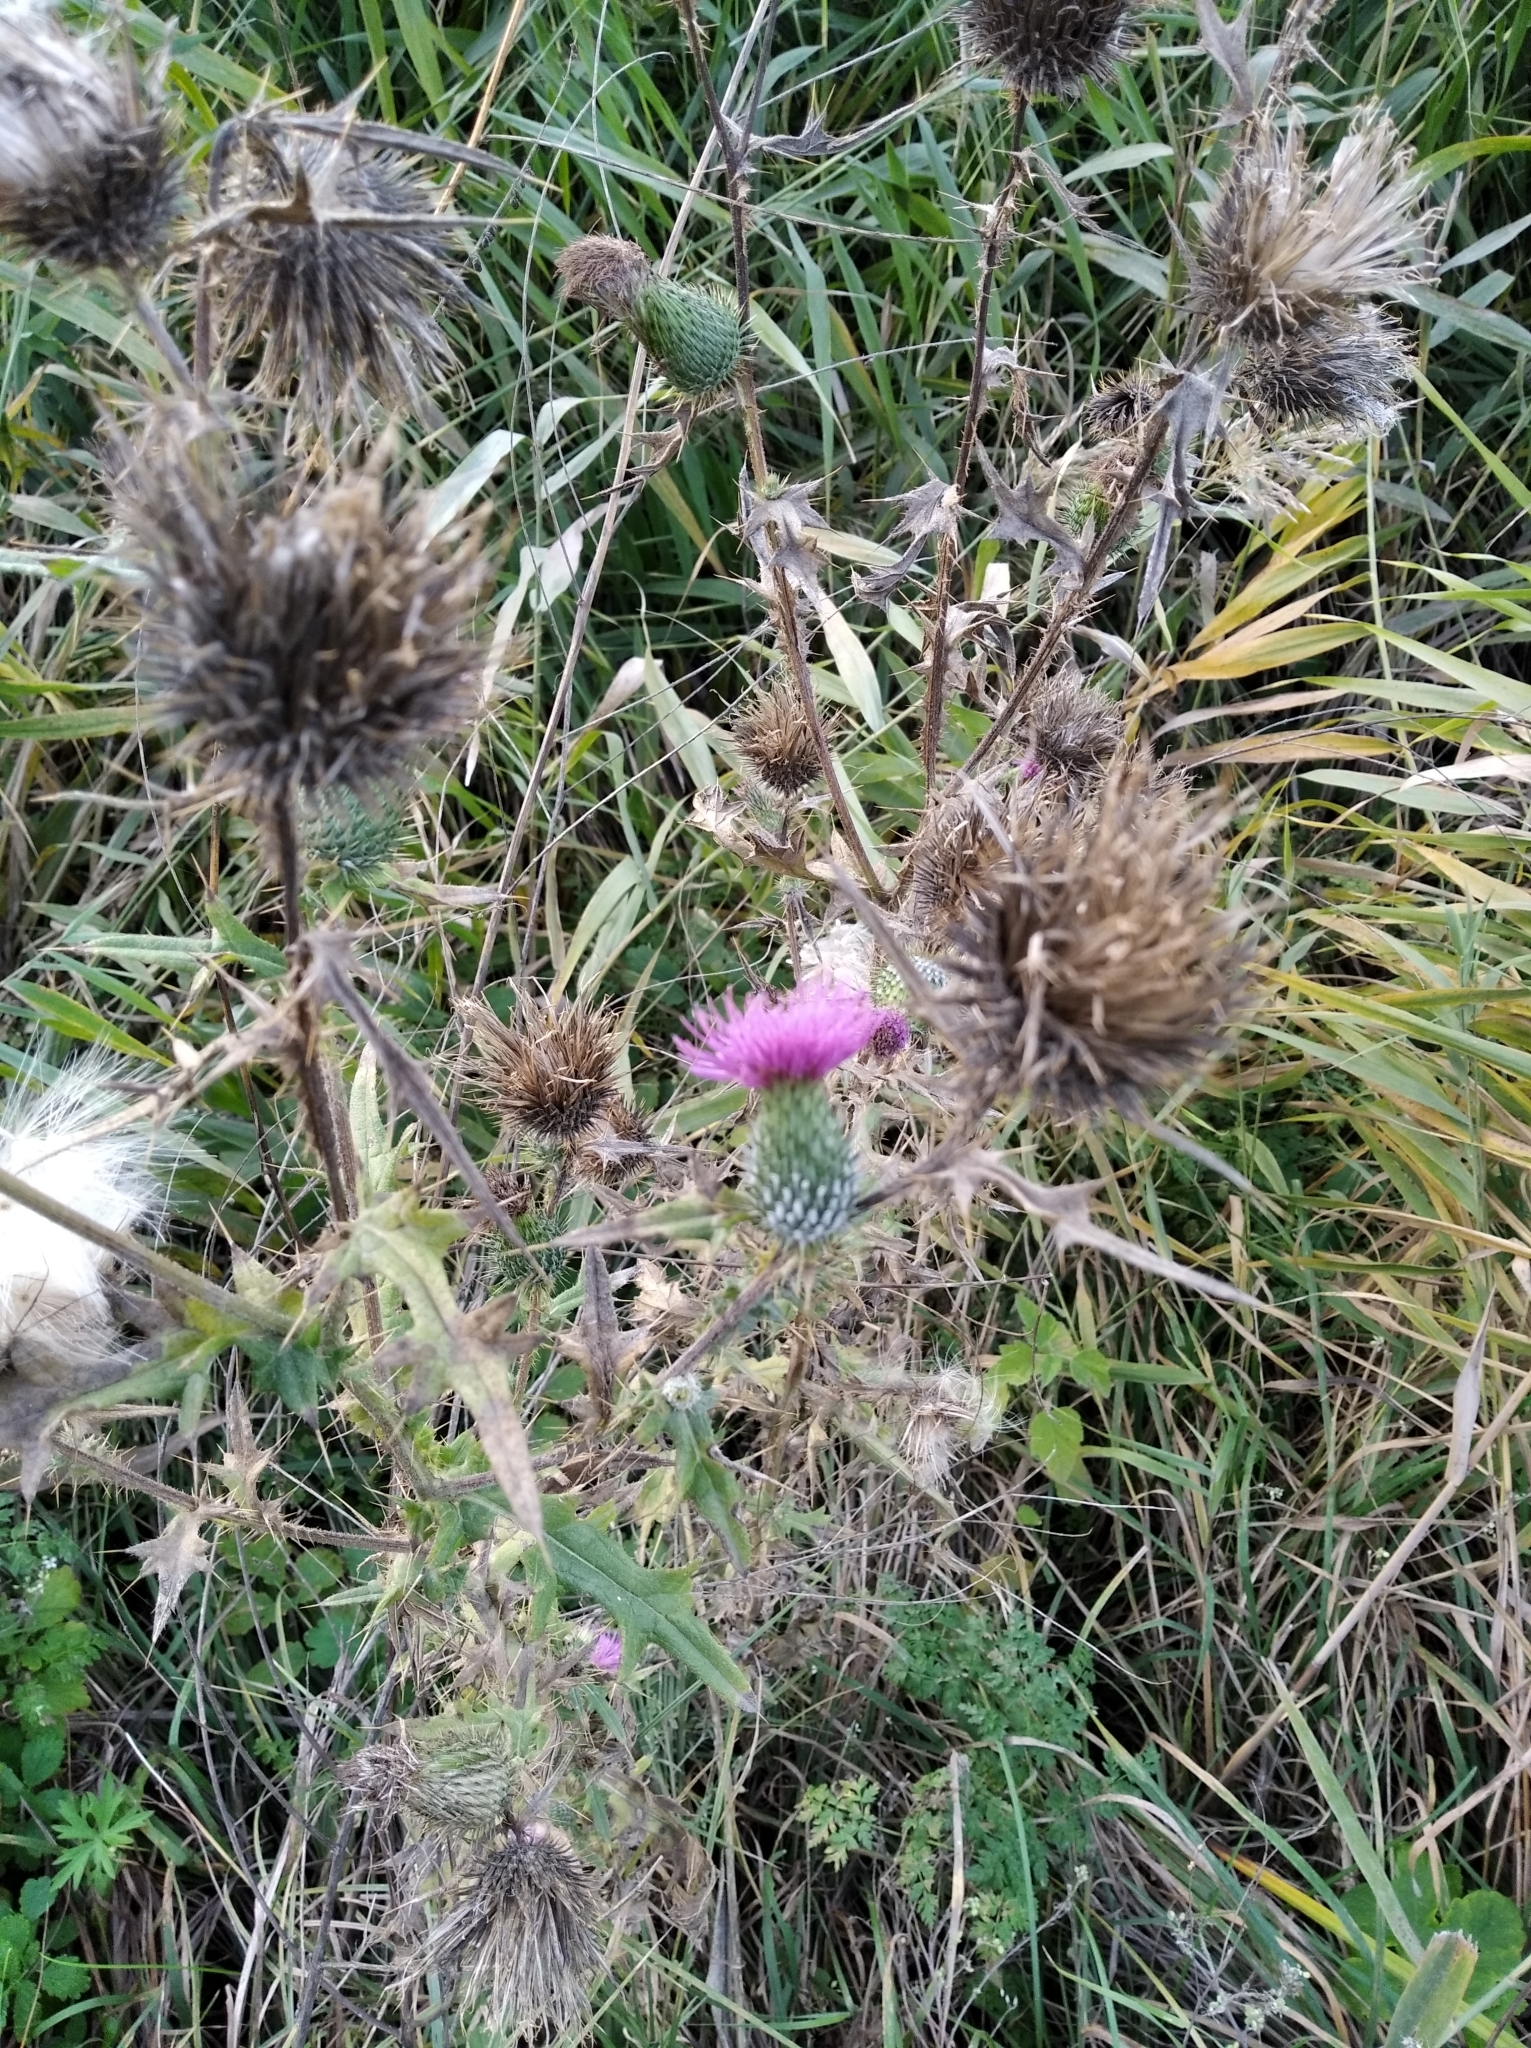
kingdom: Plantae
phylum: Tracheophyta
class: Magnoliopsida
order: Asterales
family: Asteraceae
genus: Cirsium
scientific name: Cirsium vulgare
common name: Bull thistle
